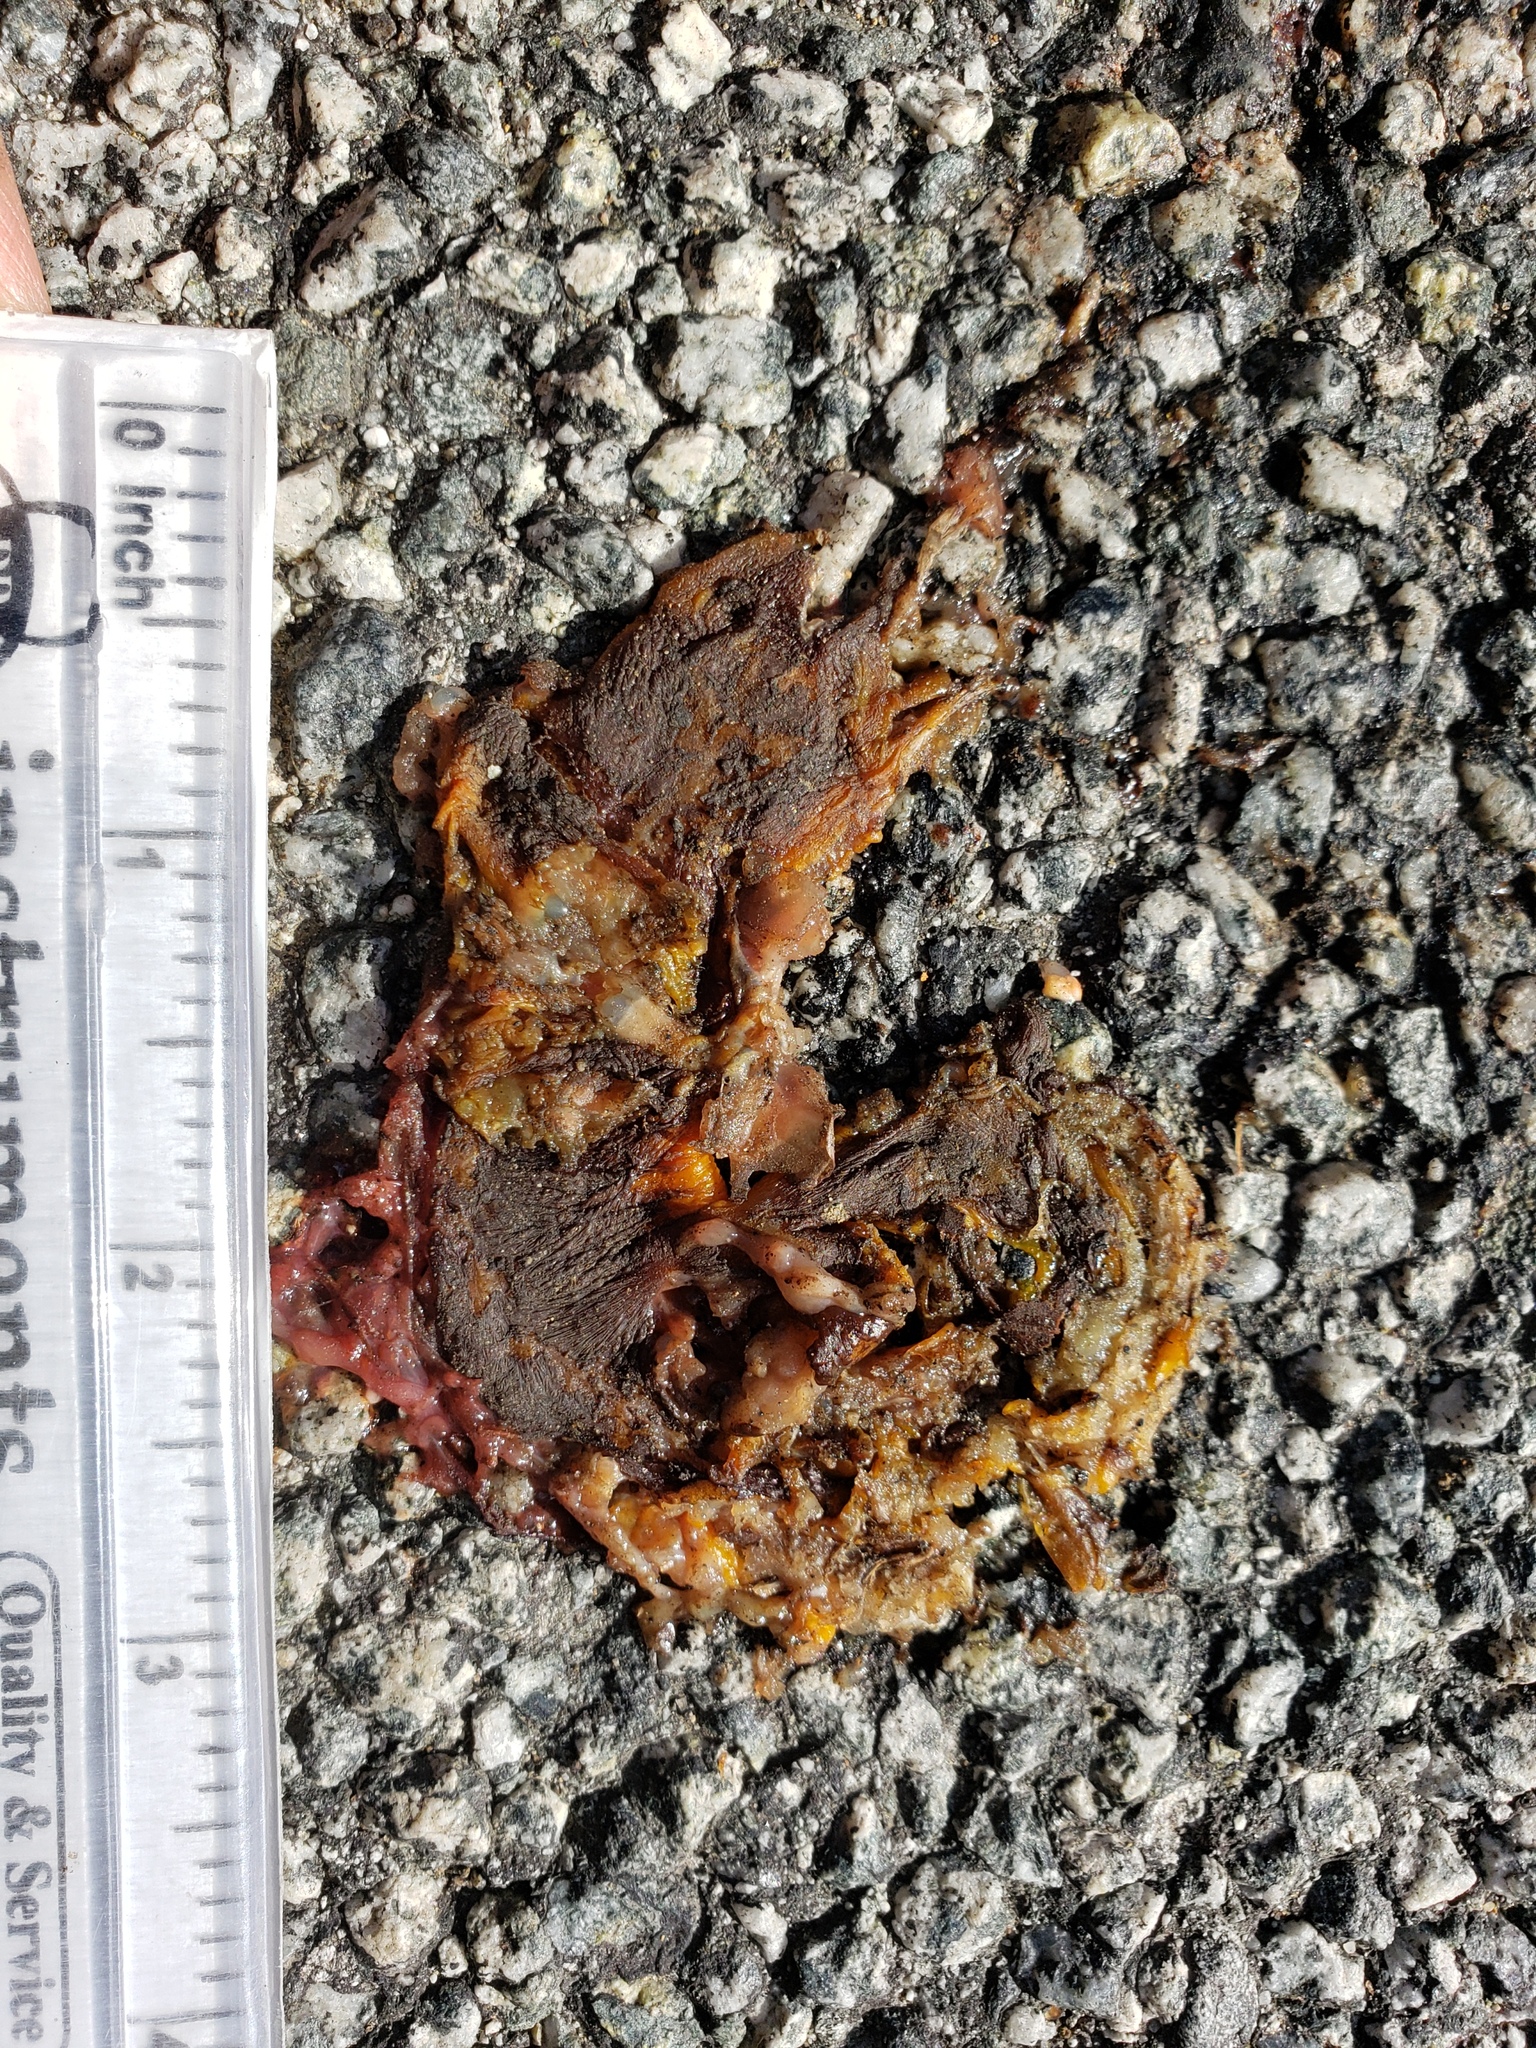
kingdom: Animalia
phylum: Chordata
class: Amphibia
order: Caudata
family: Salamandridae
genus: Taricha
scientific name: Taricha
